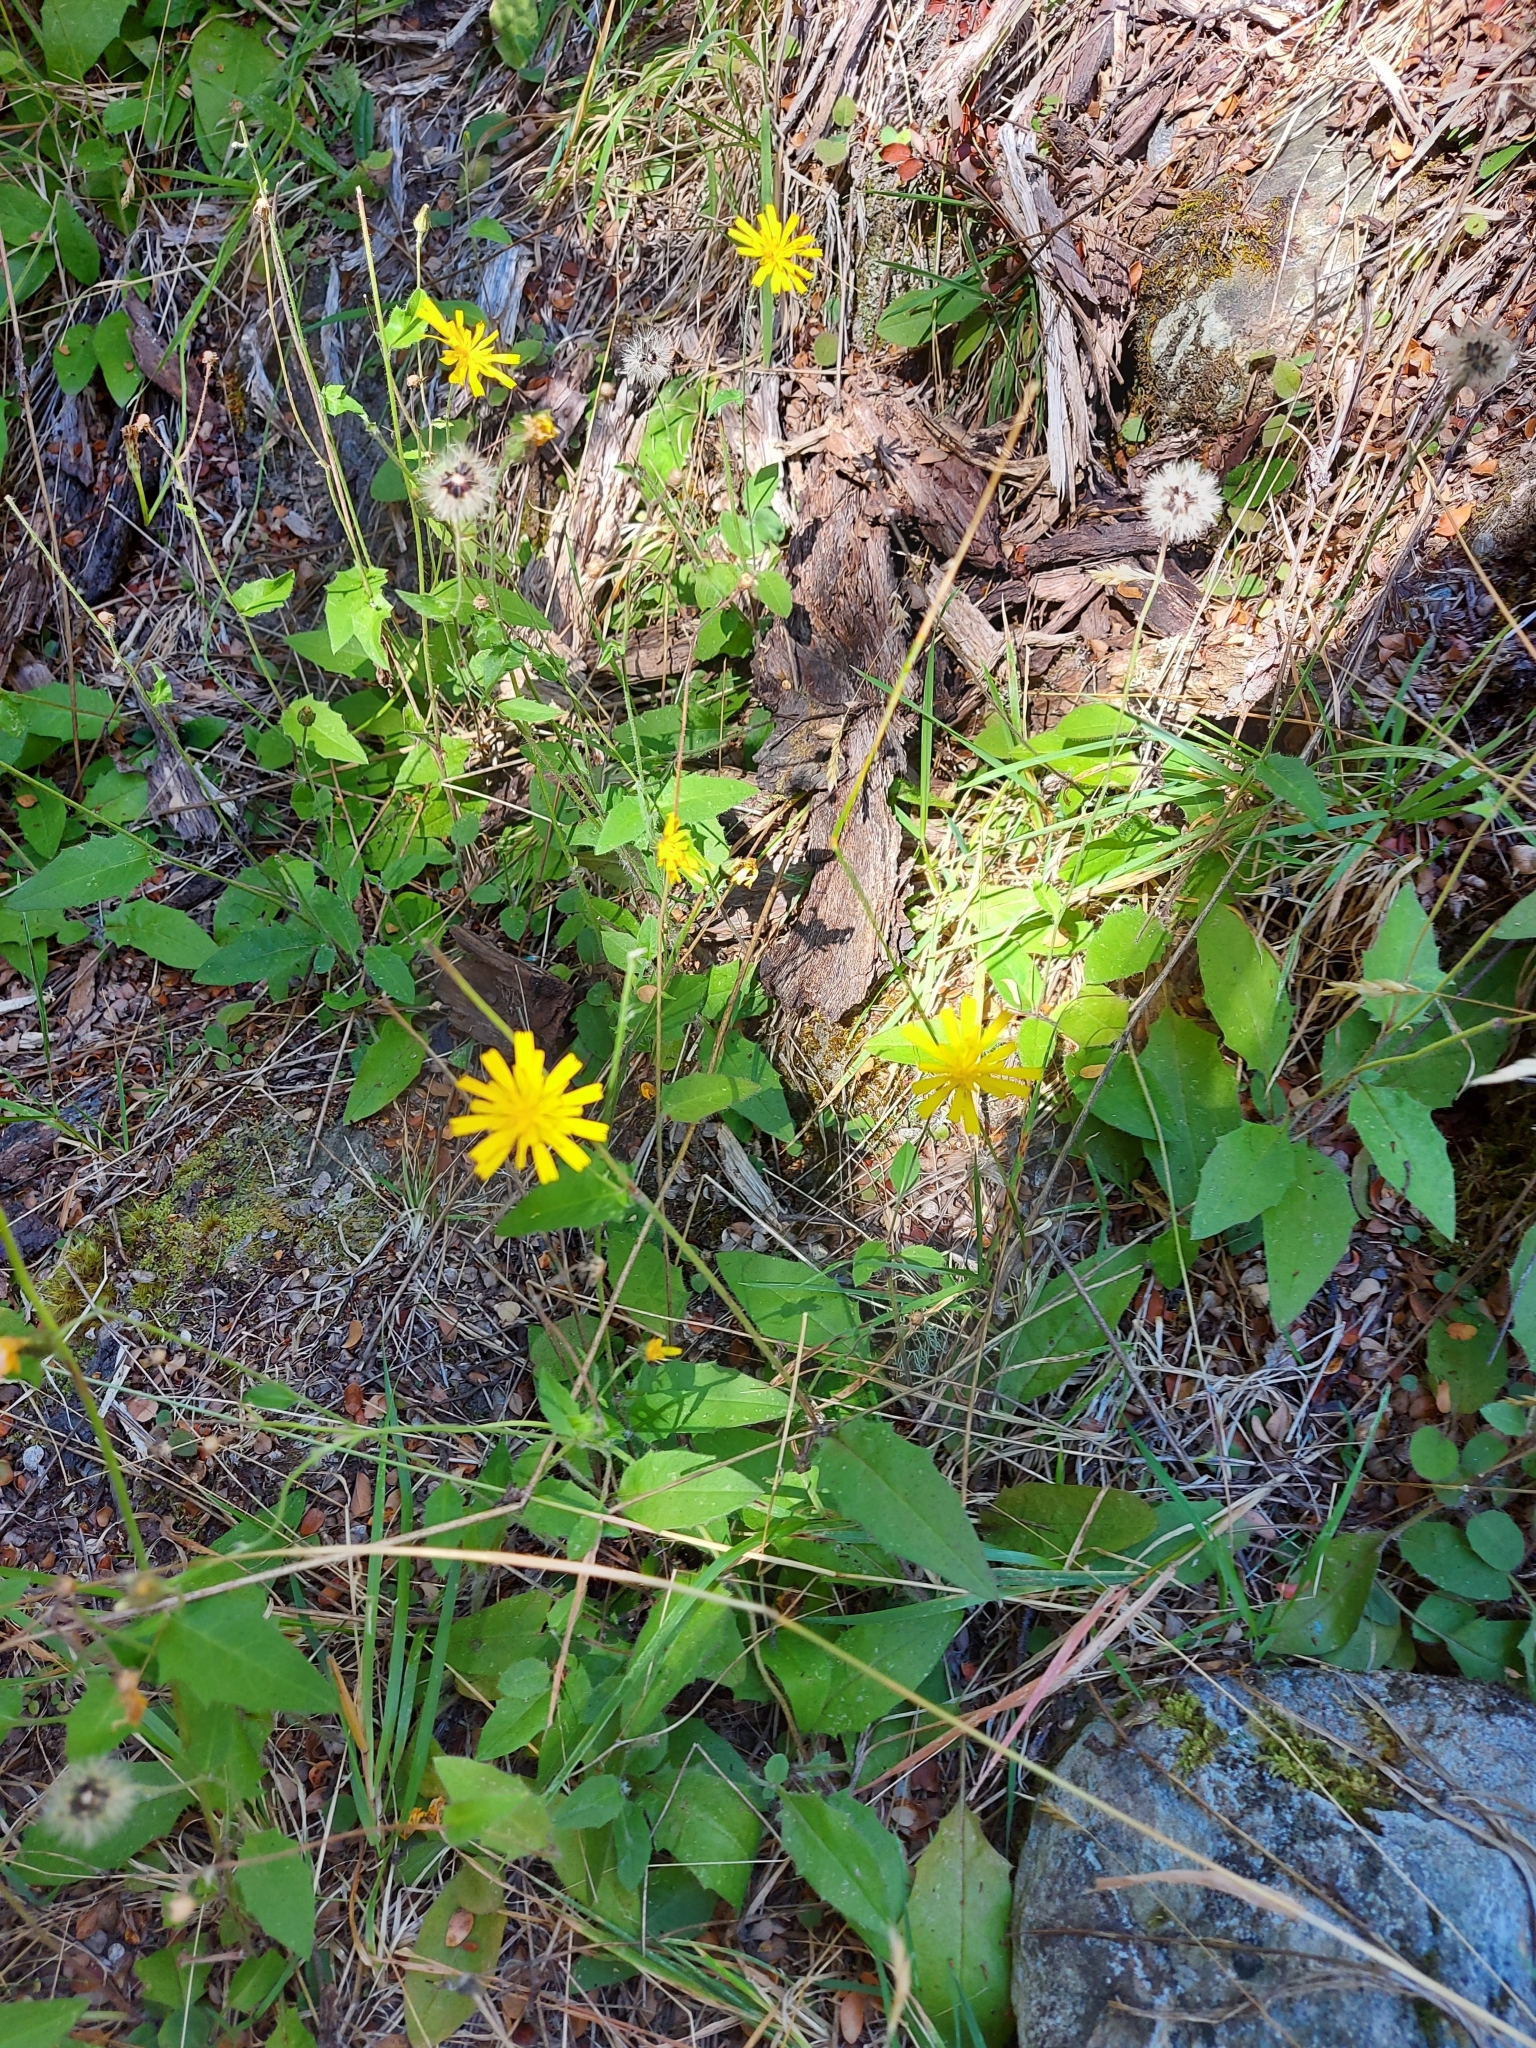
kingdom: Plantae
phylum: Tracheophyta
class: Magnoliopsida
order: Asterales
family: Asteraceae
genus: Hieracium
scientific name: Hieracium lepidulum
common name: Irregular-toothed hawkweed
